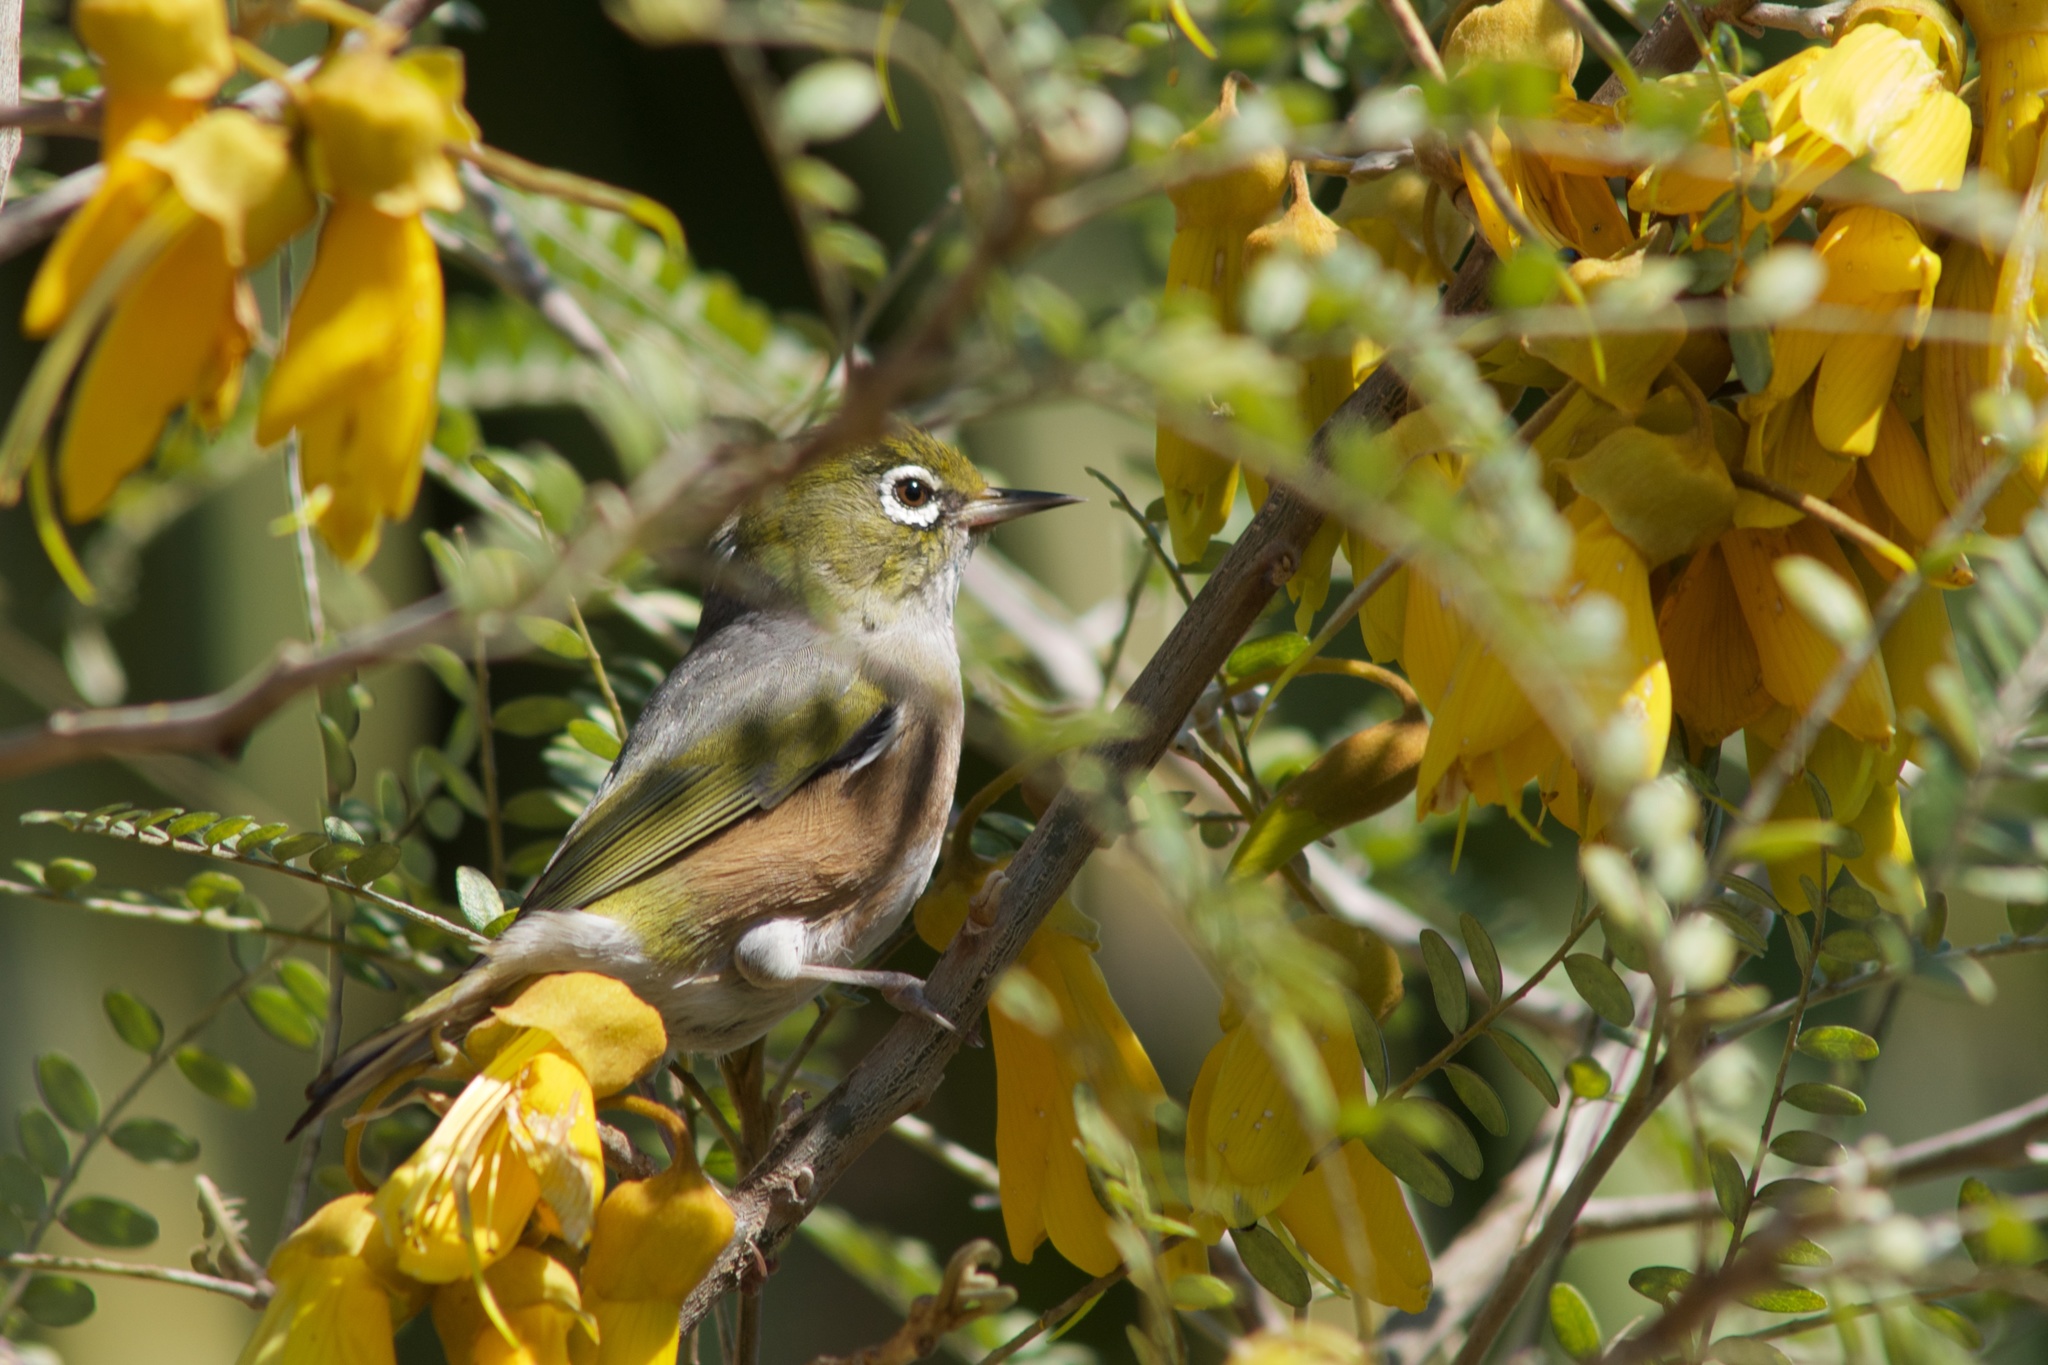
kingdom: Animalia
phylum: Chordata
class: Aves
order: Passeriformes
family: Zosteropidae
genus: Zosterops
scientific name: Zosterops lateralis
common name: Silvereye
